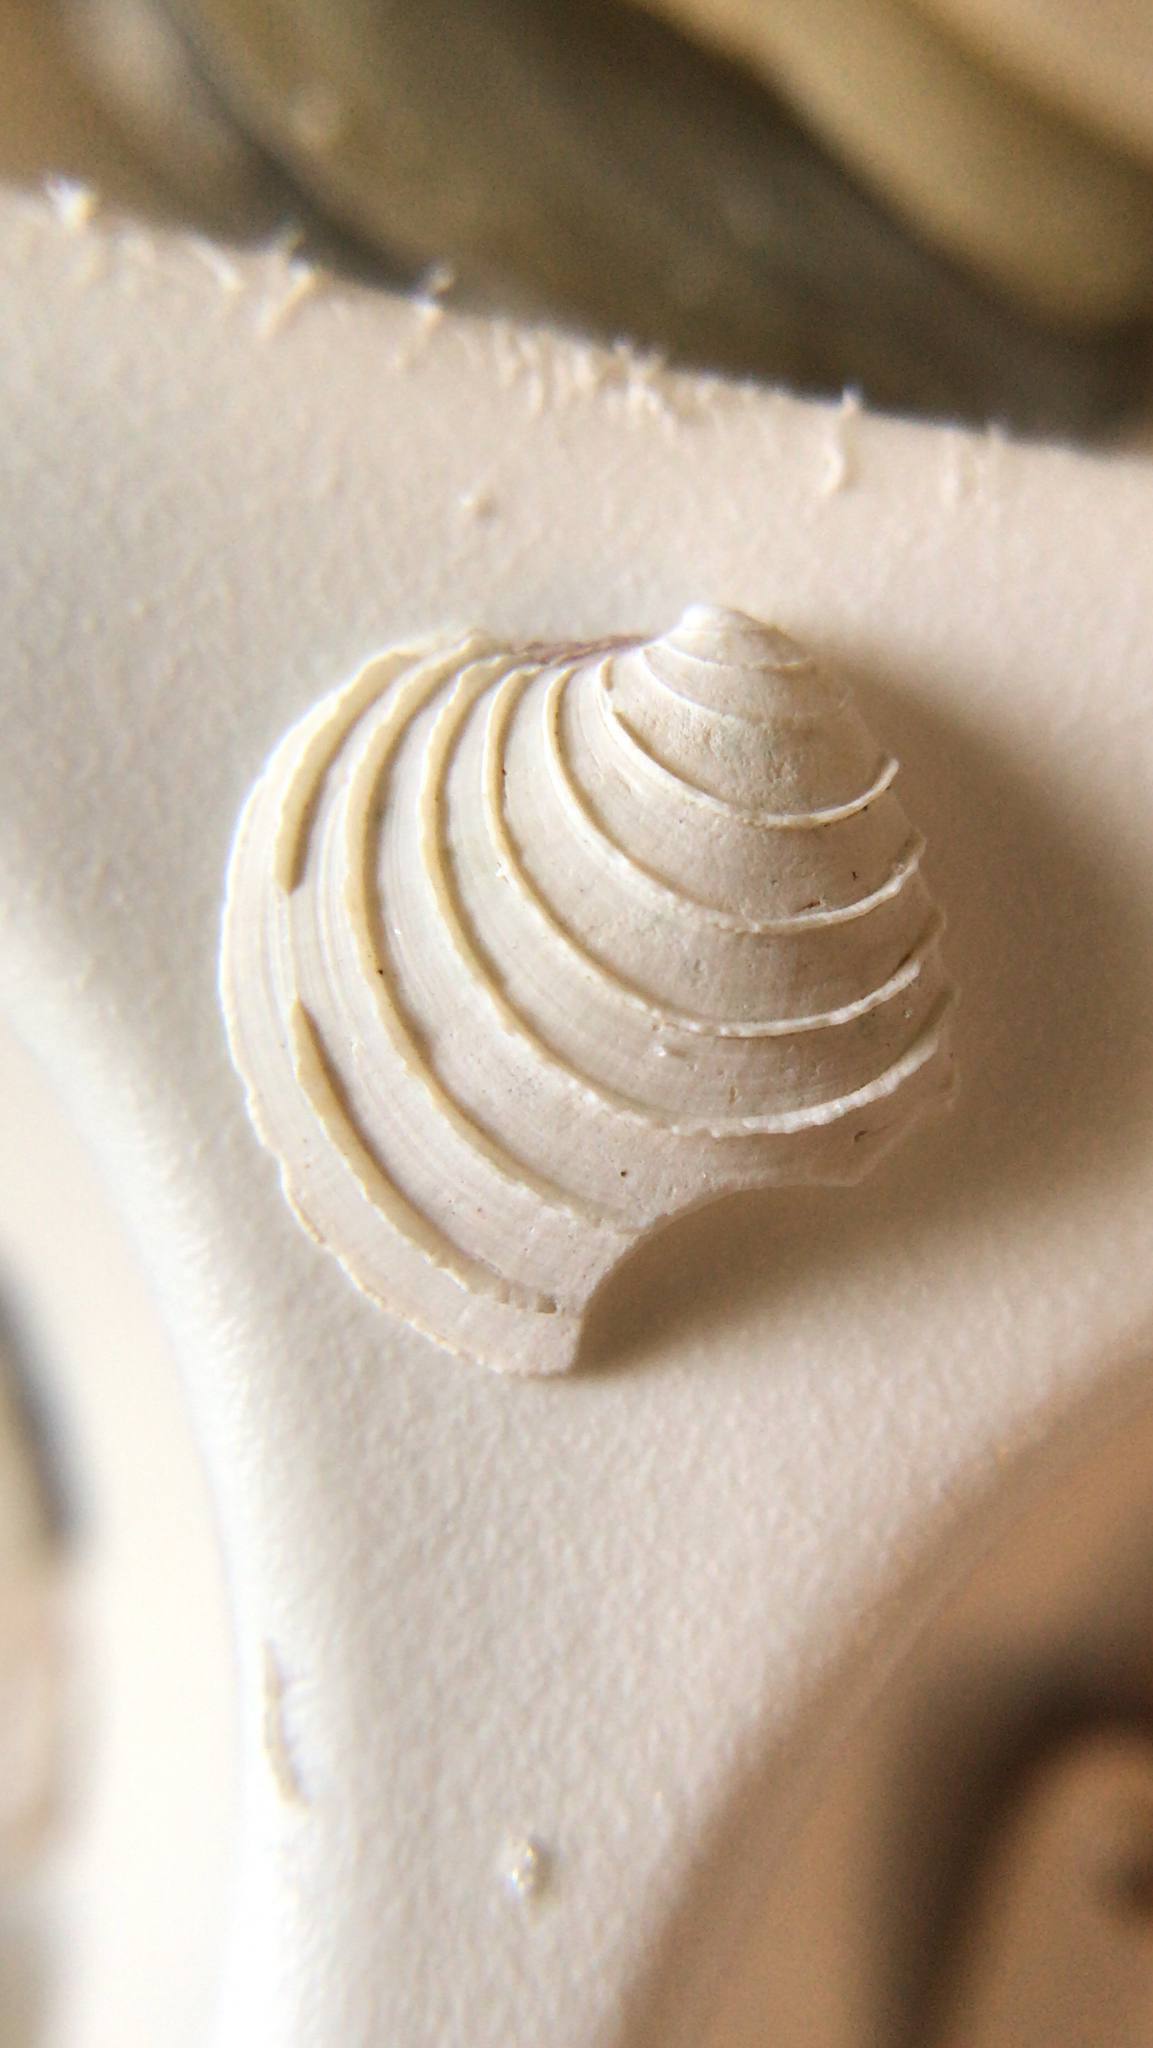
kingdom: Animalia
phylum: Mollusca
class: Bivalvia
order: Venerida
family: Veneridae
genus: Mercenaria
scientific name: Mercenaria
